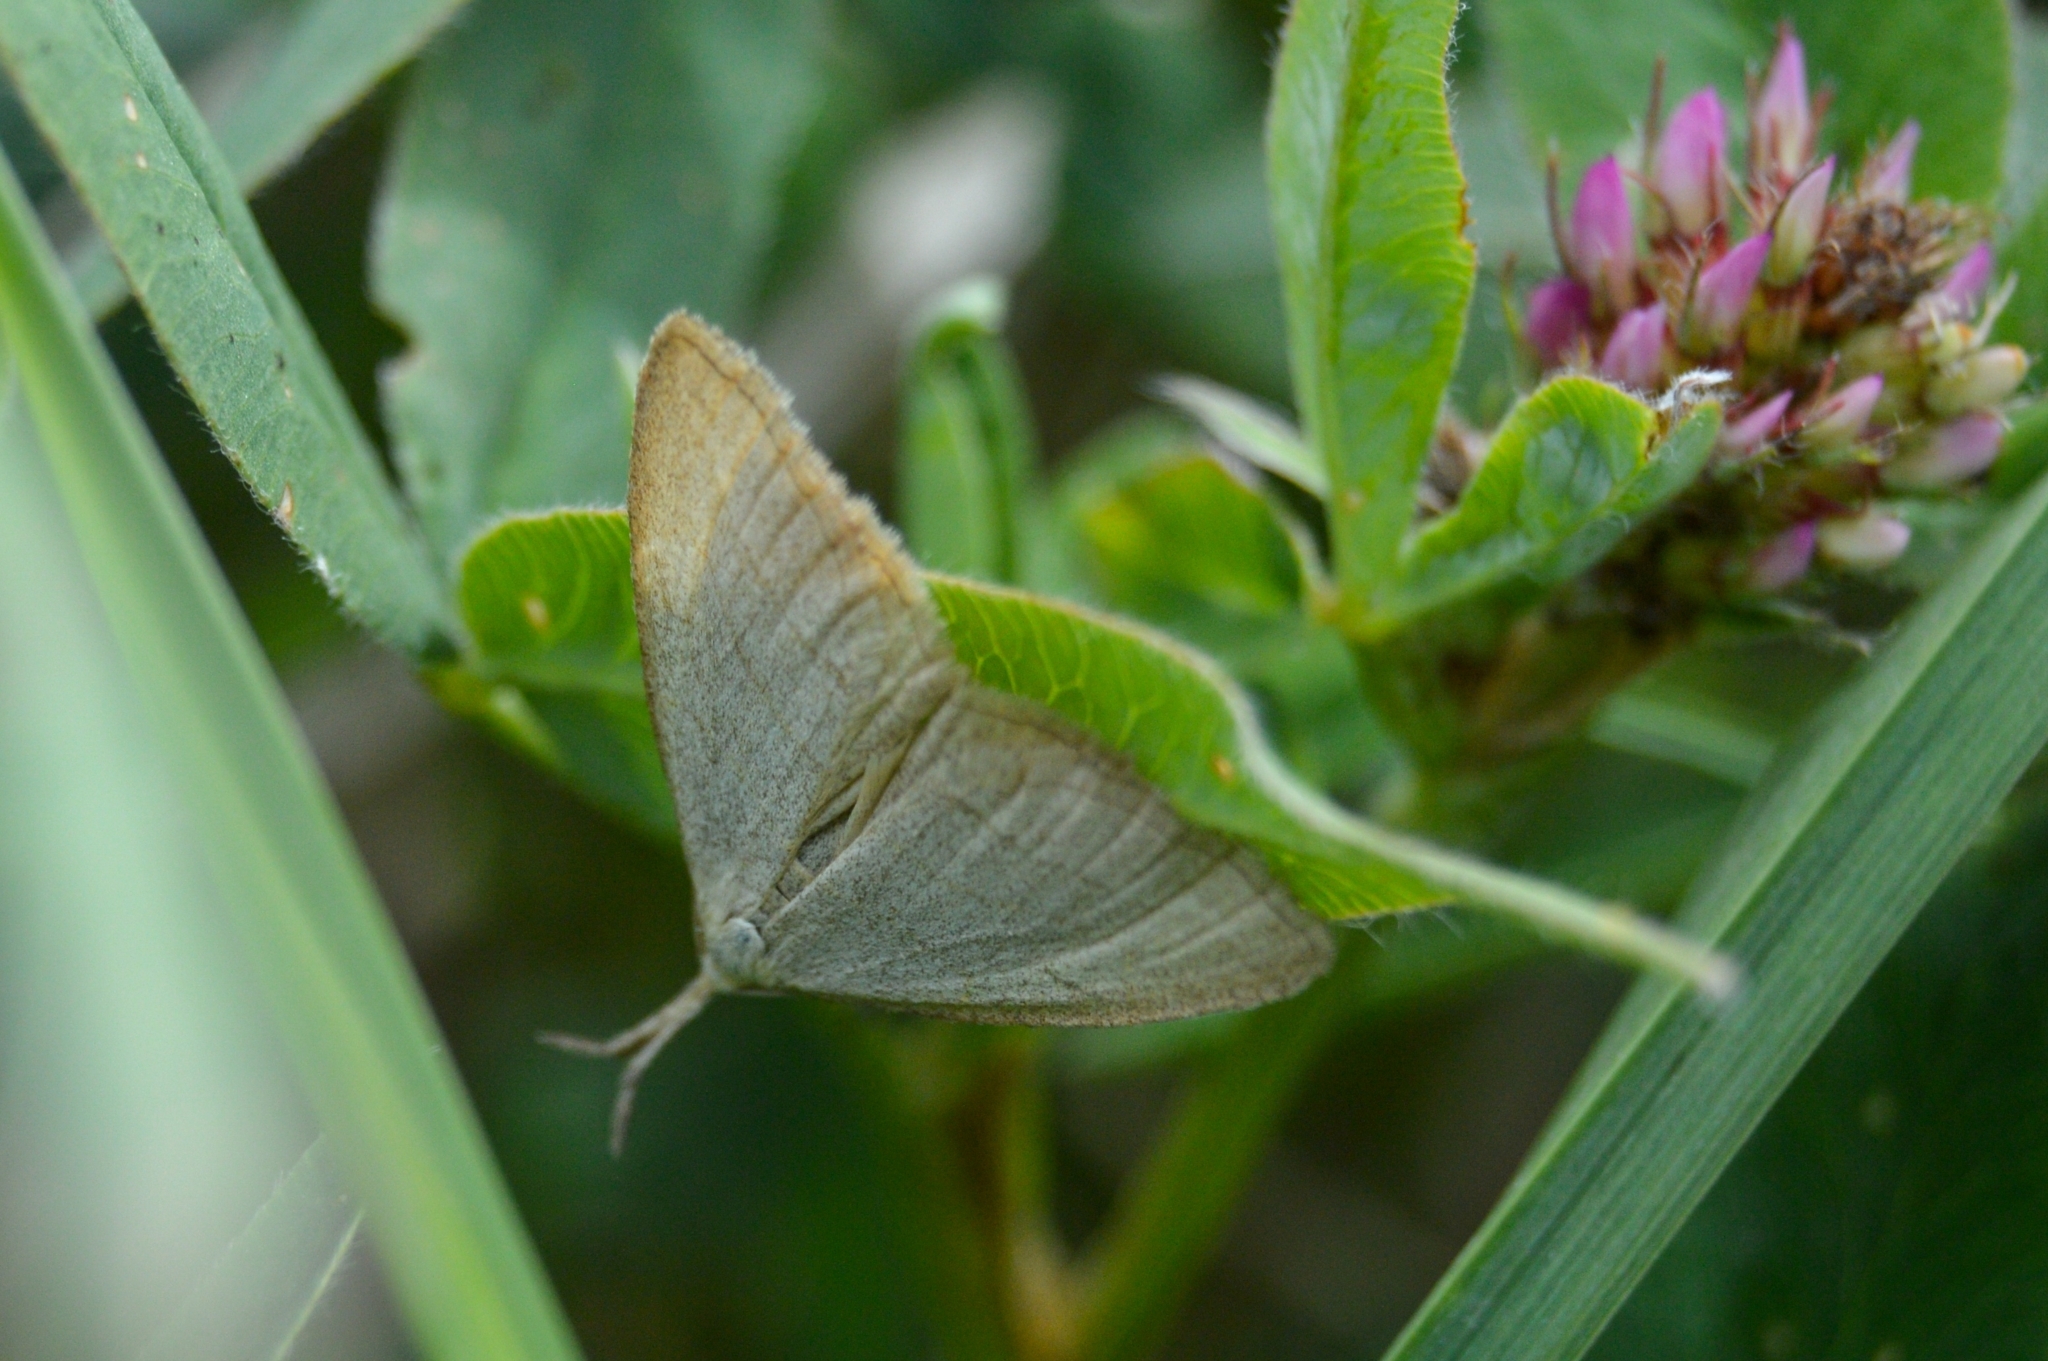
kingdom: Animalia
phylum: Arthropoda
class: Insecta
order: Lepidoptera
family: Erebidae
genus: Polypogon
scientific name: Polypogon tentacularia
